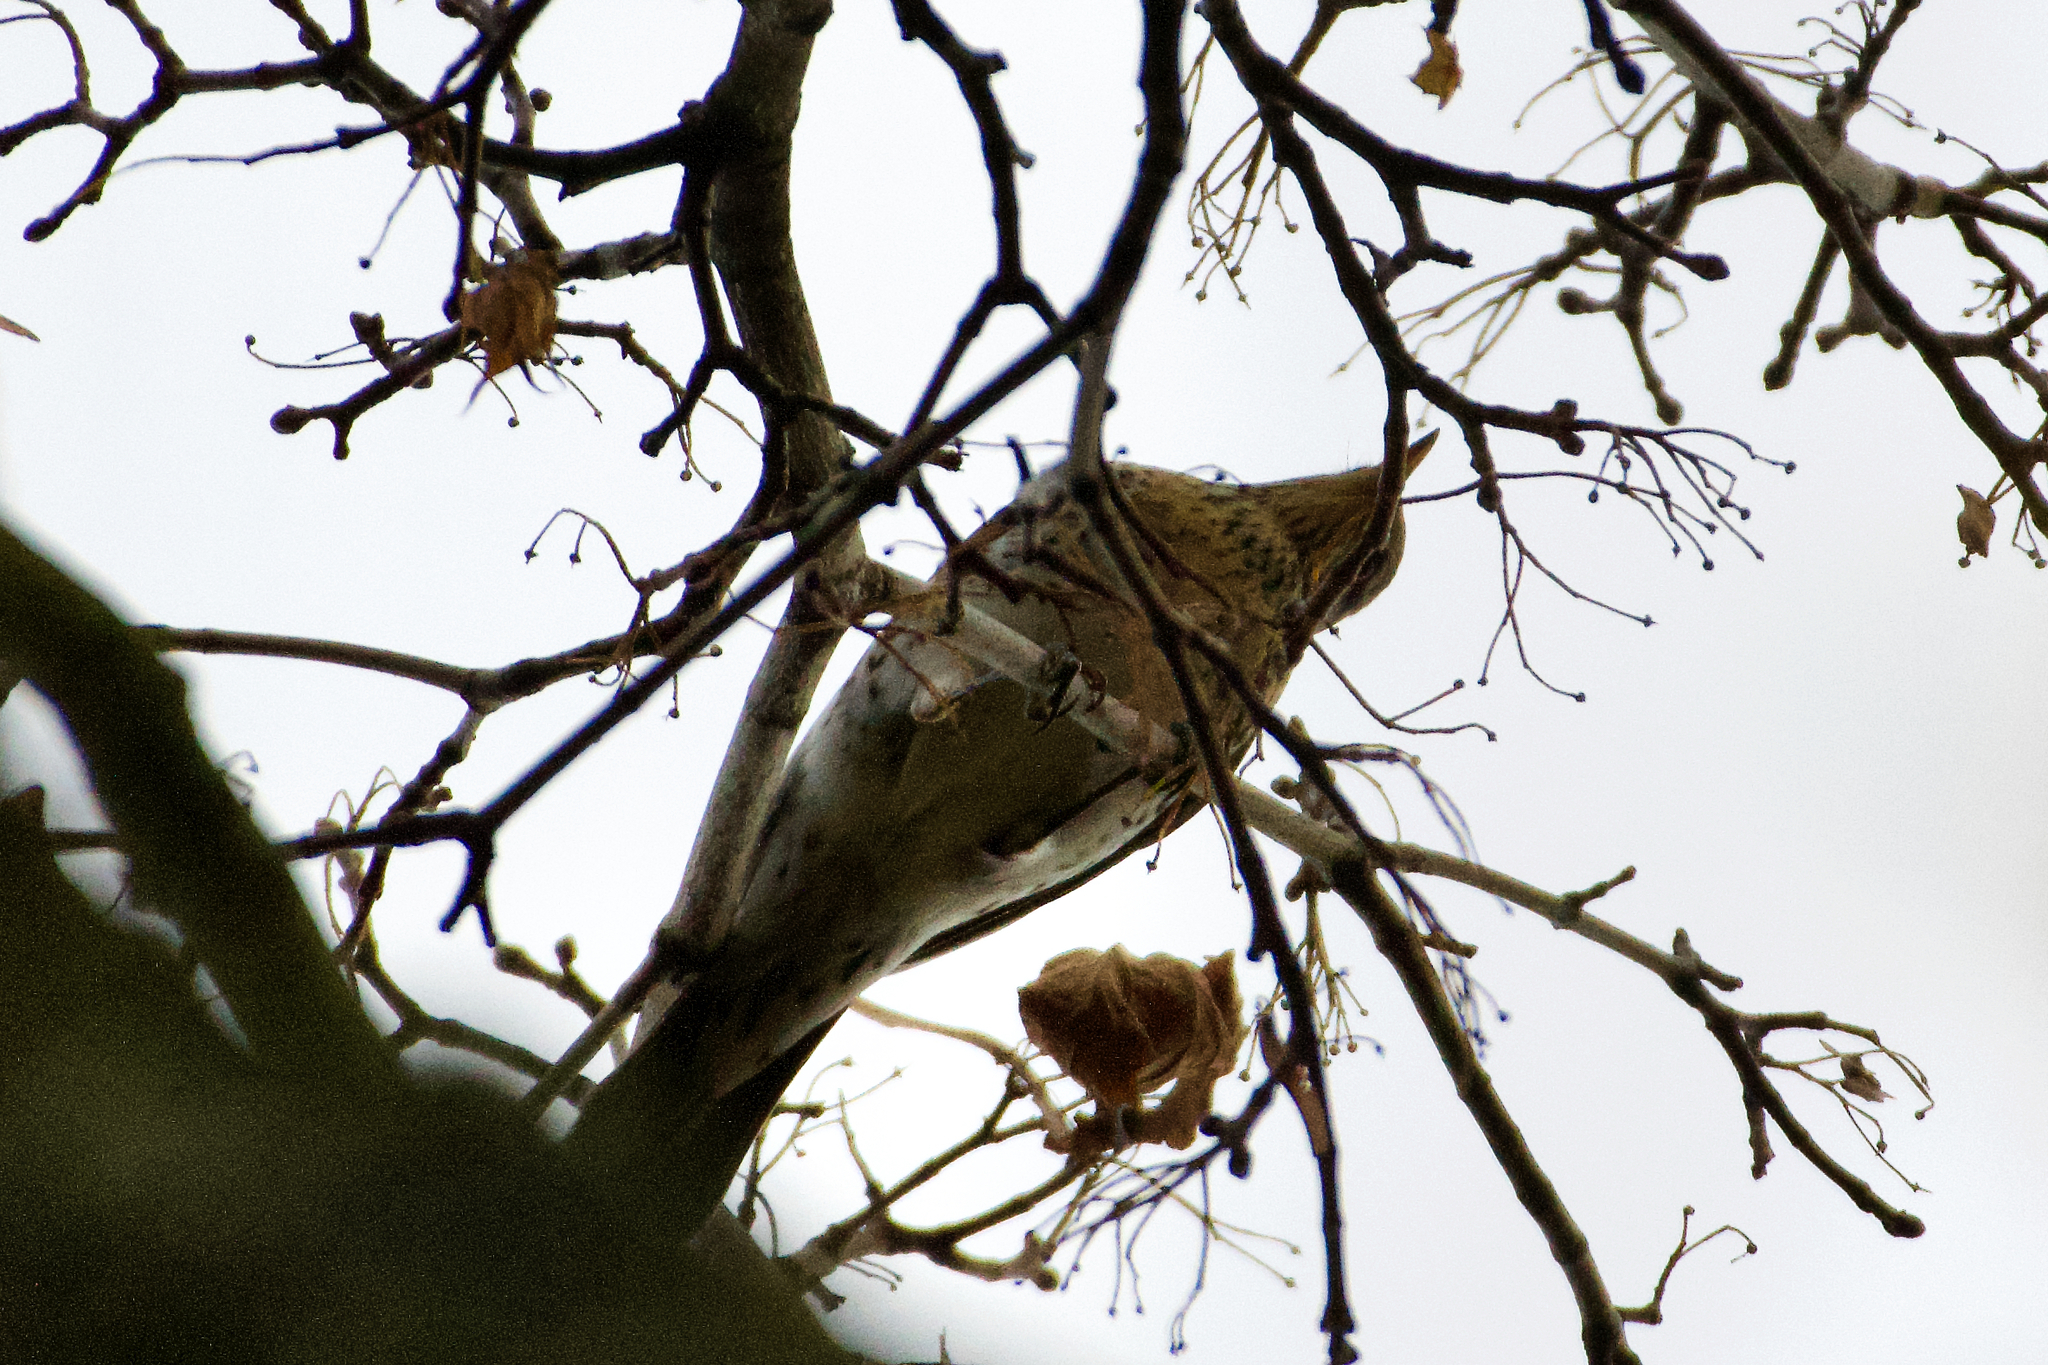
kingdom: Animalia
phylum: Chordata
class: Aves
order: Passeriformes
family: Turdidae
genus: Turdus
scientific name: Turdus pilaris
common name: Fieldfare
